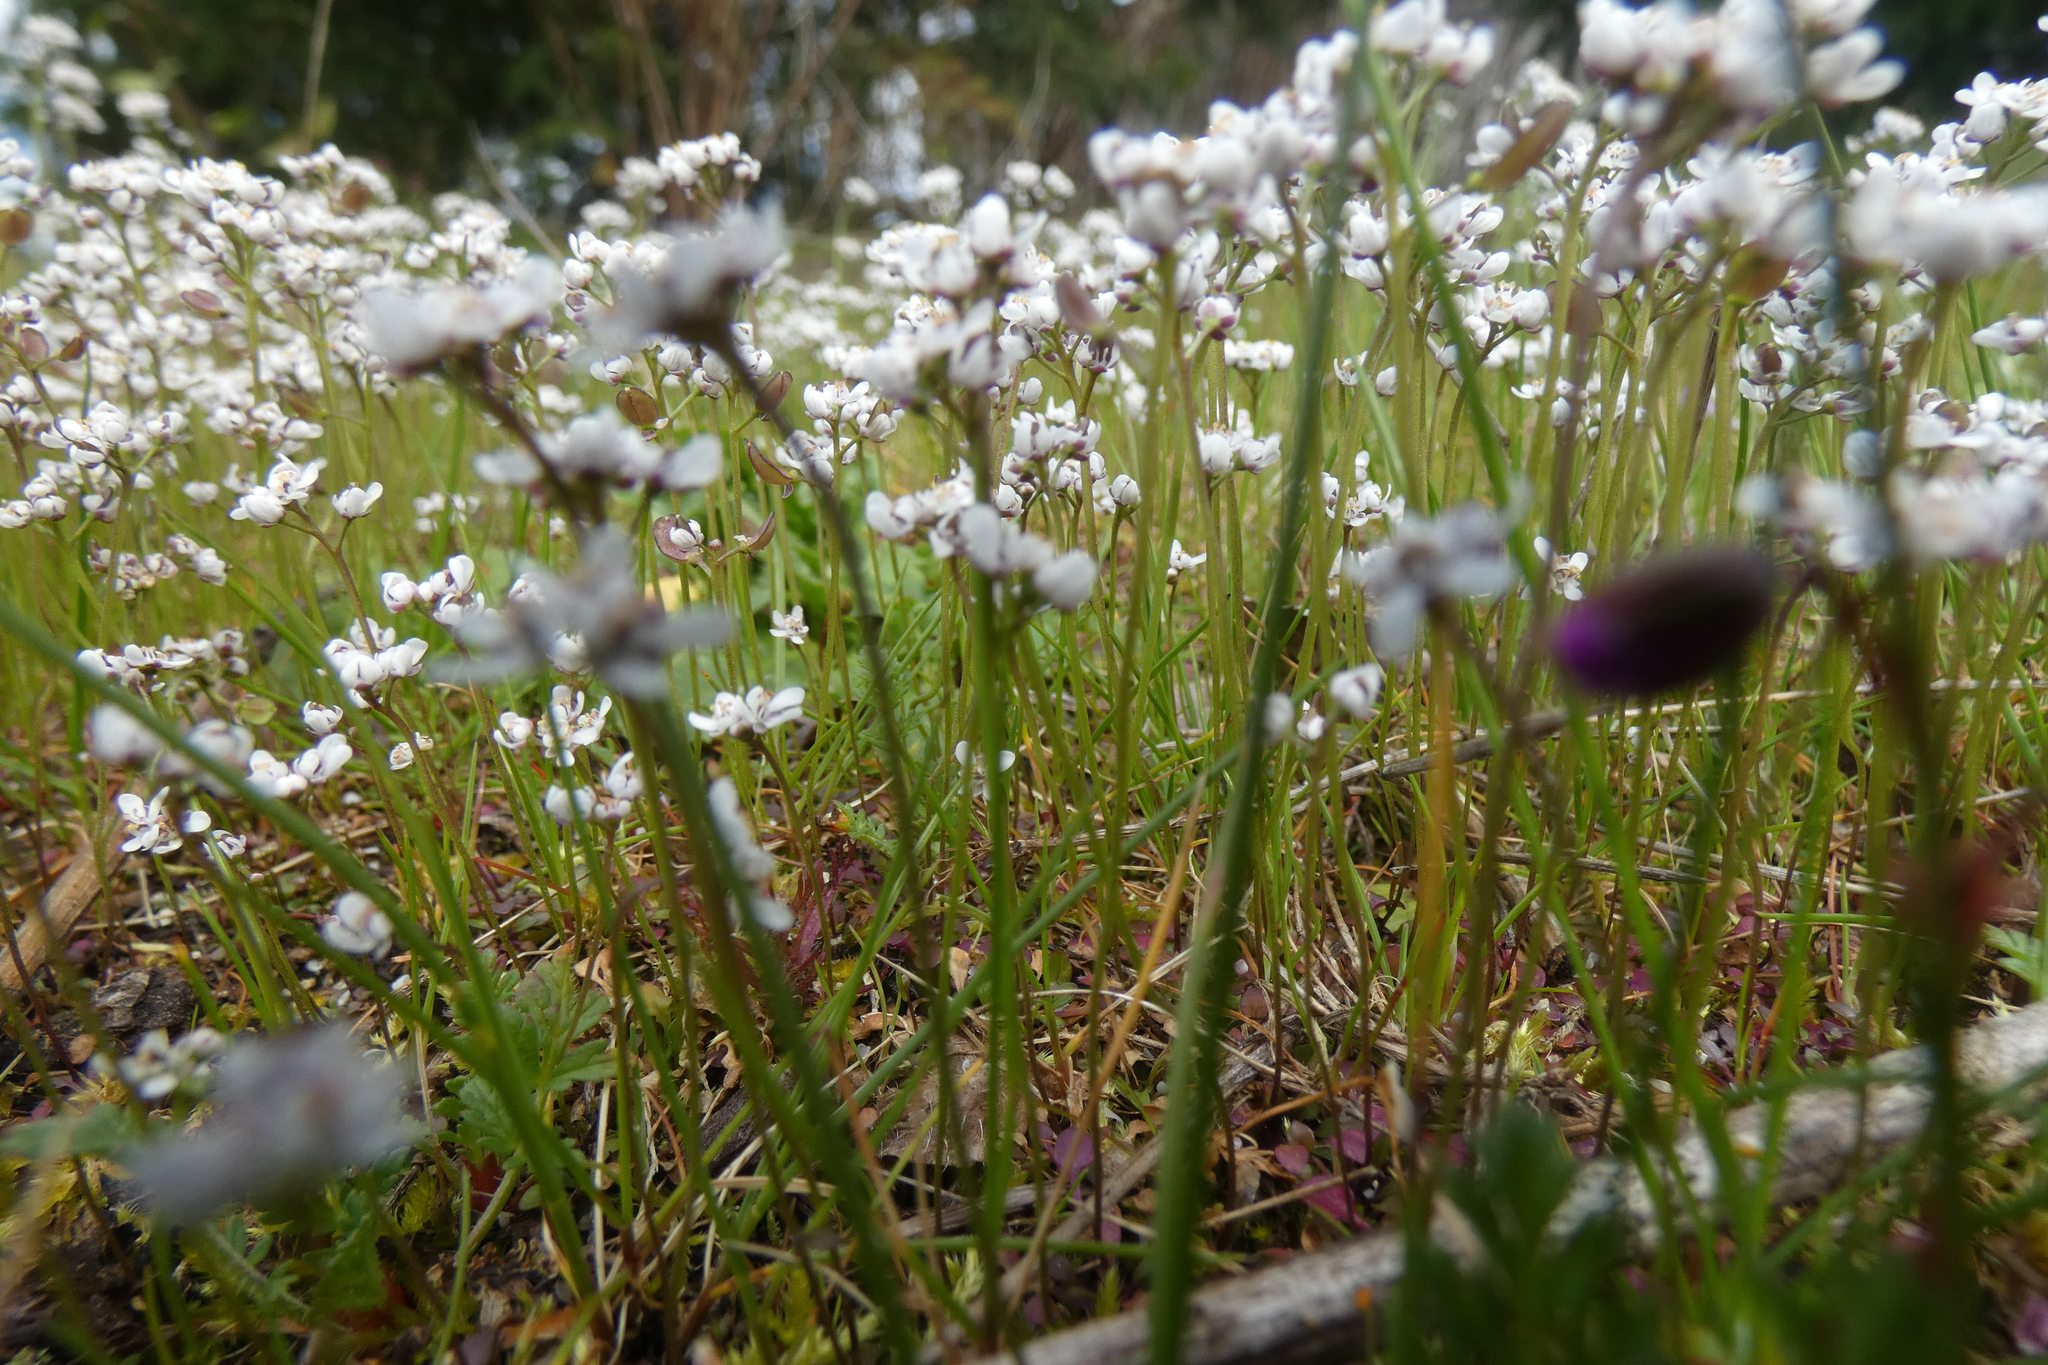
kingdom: Plantae
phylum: Tracheophyta
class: Magnoliopsida
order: Brassicales
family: Brassicaceae
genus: Teesdalia
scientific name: Teesdalia nudicaulis
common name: Shepherd's cress
